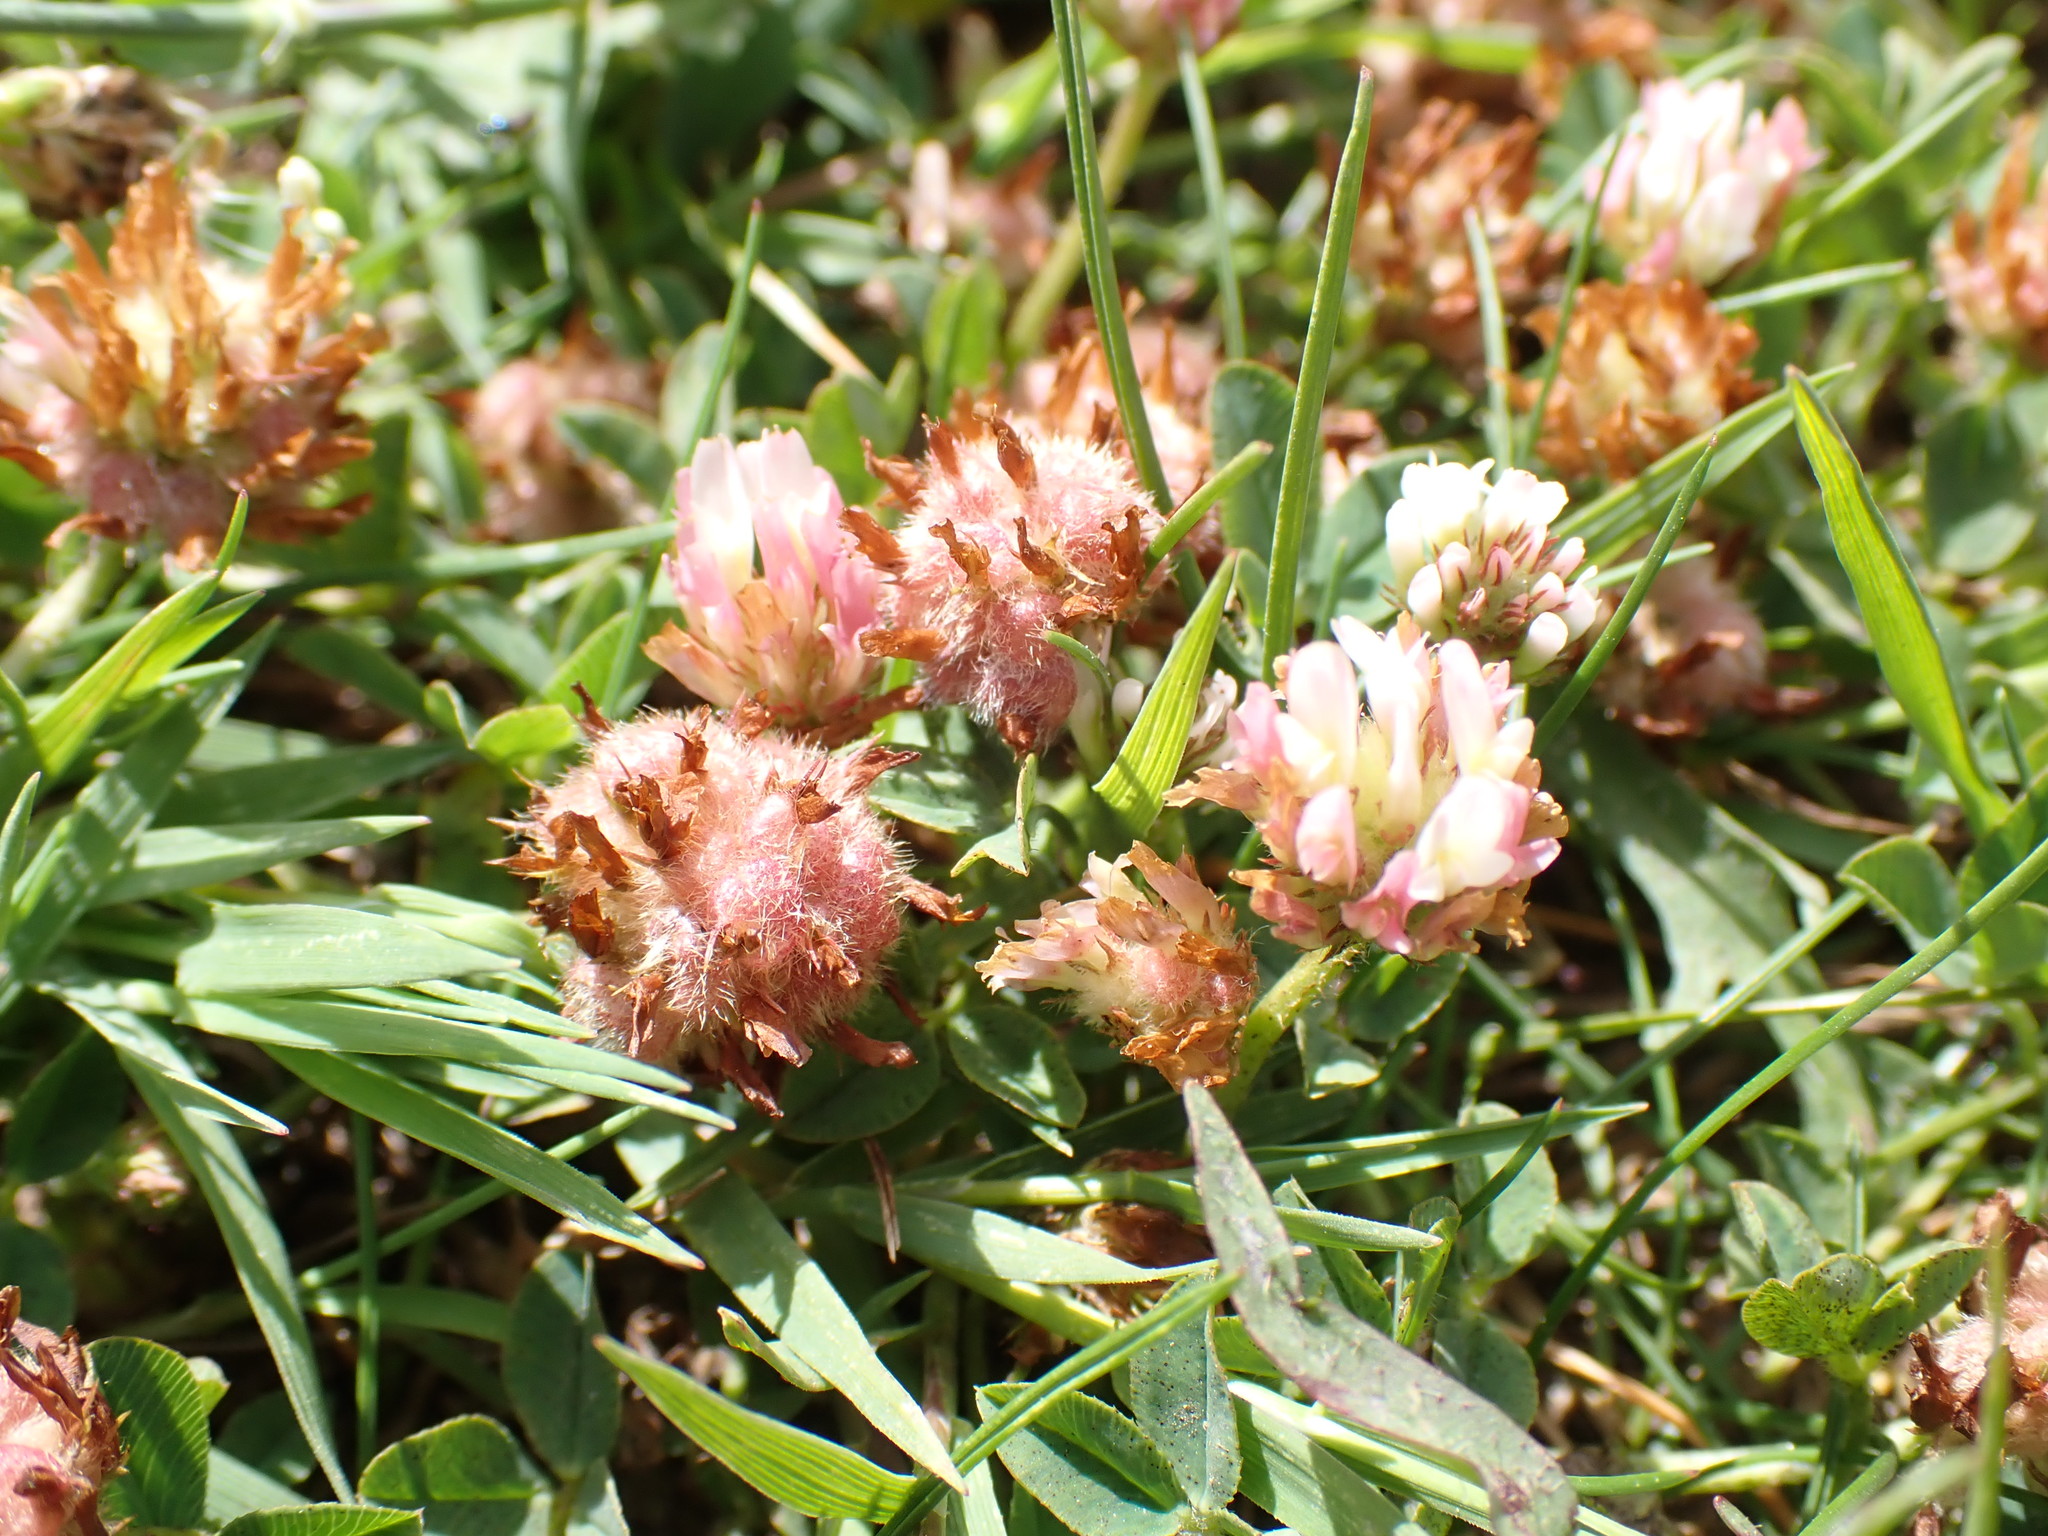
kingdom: Plantae
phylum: Tracheophyta
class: Magnoliopsida
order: Fabales
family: Fabaceae
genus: Trifolium
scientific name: Trifolium fragiferum
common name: Strawberry clover
